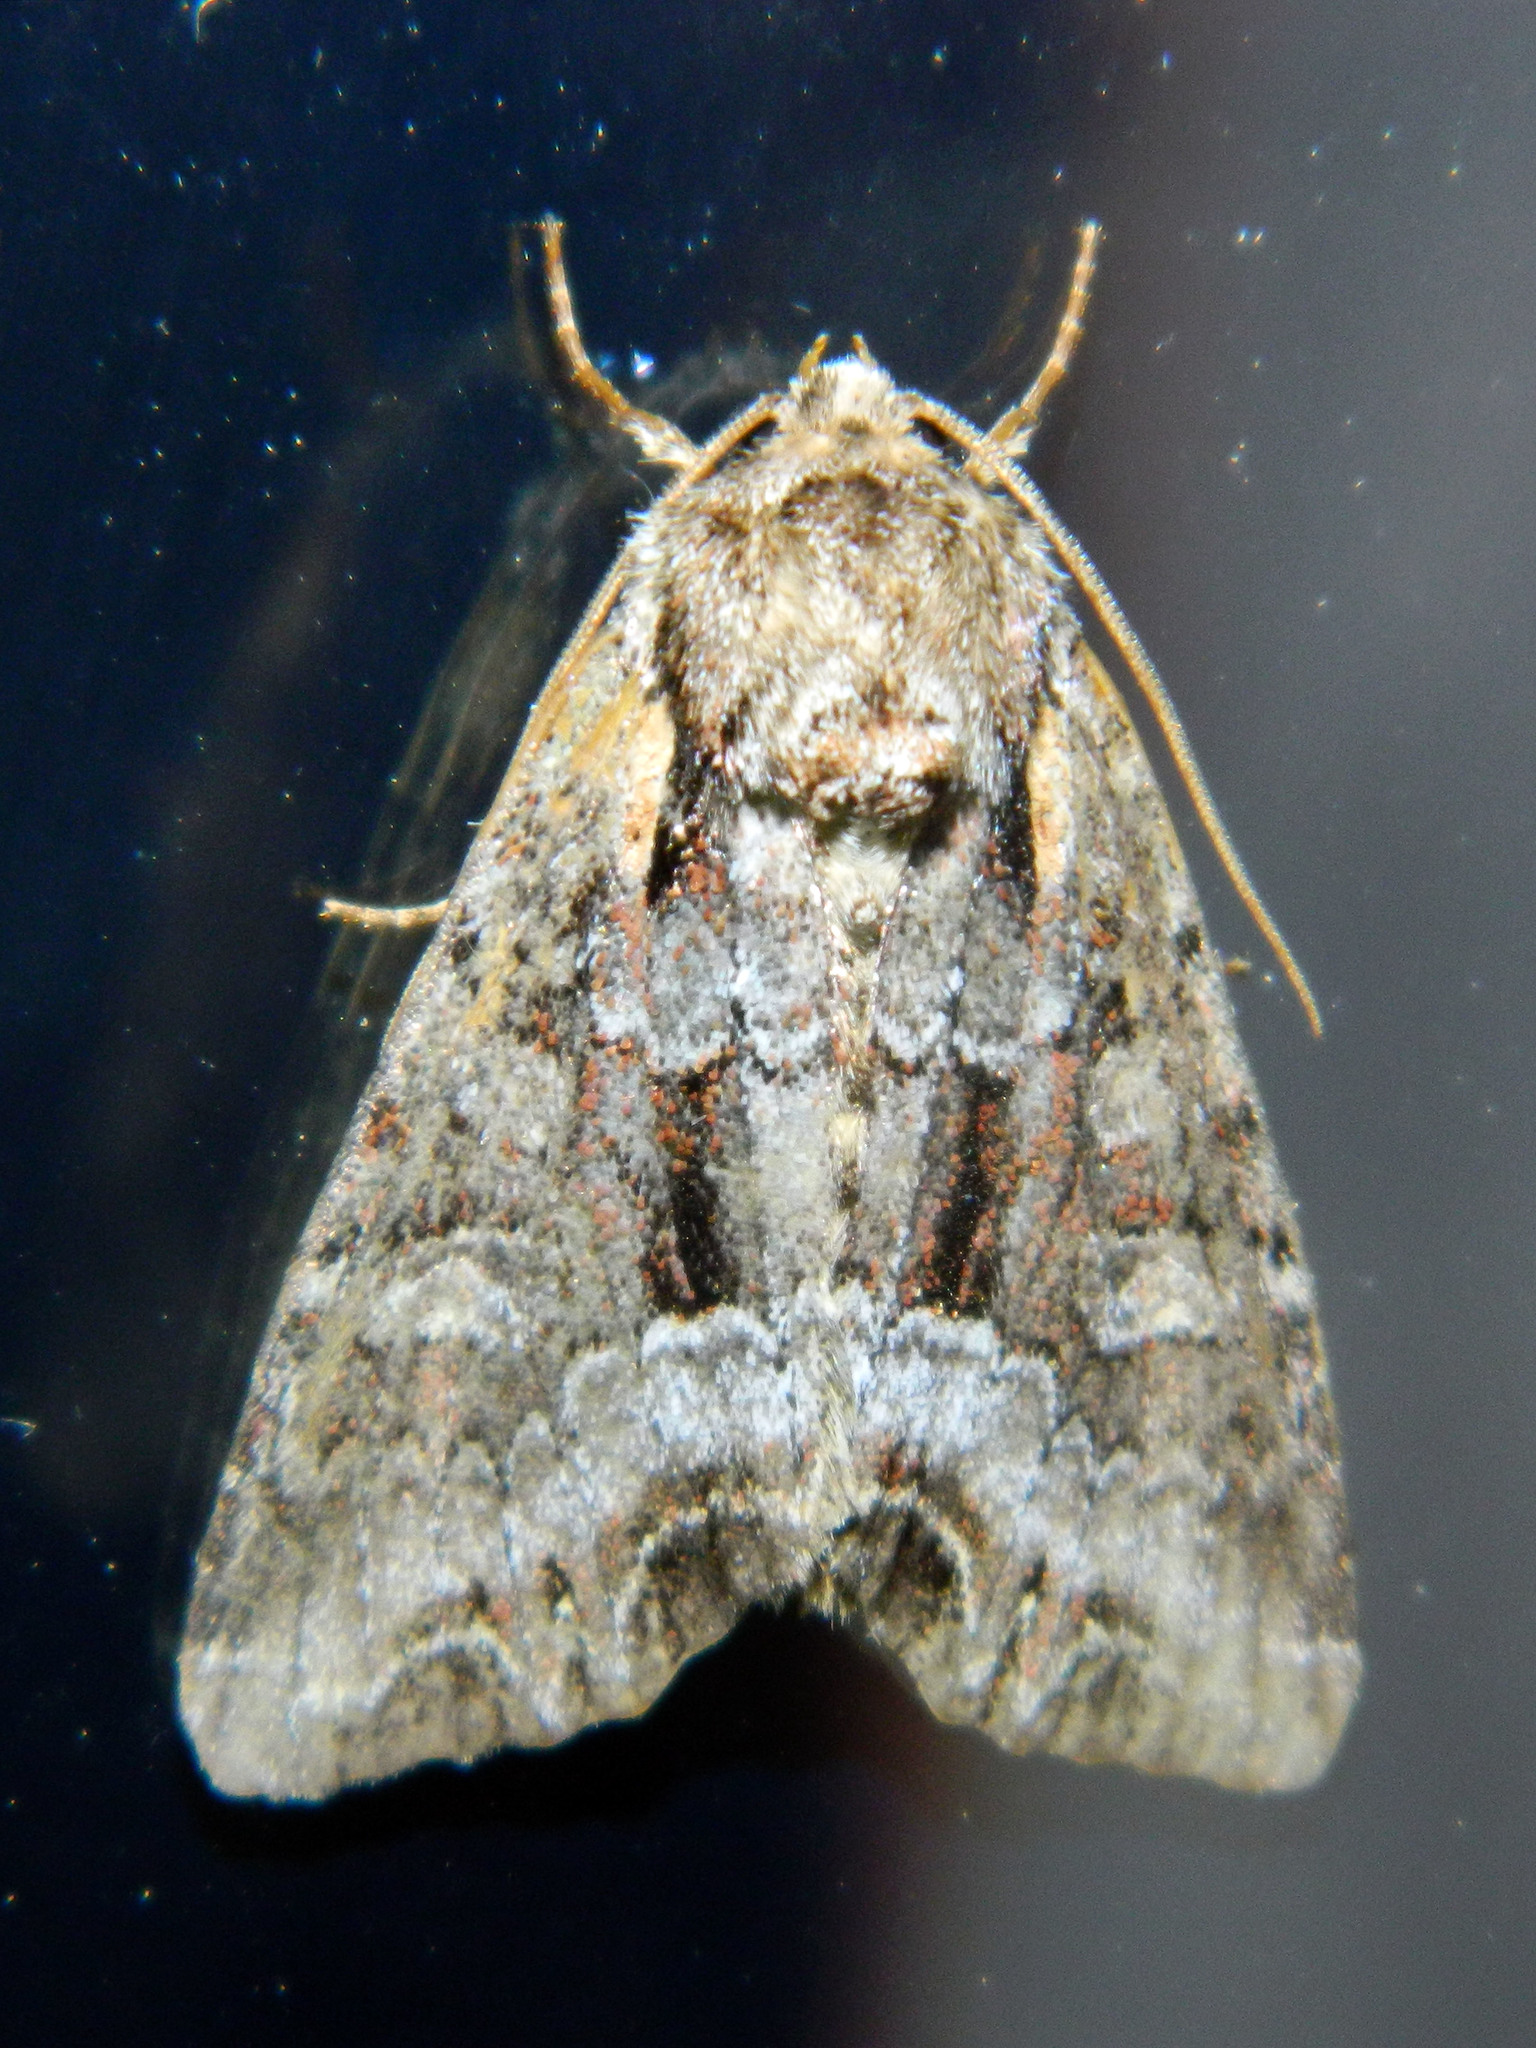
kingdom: Animalia
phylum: Arthropoda
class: Insecta
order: Lepidoptera
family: Noctuidae
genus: Lacanobia
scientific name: Lacanobia grandis
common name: Grand arches moth
